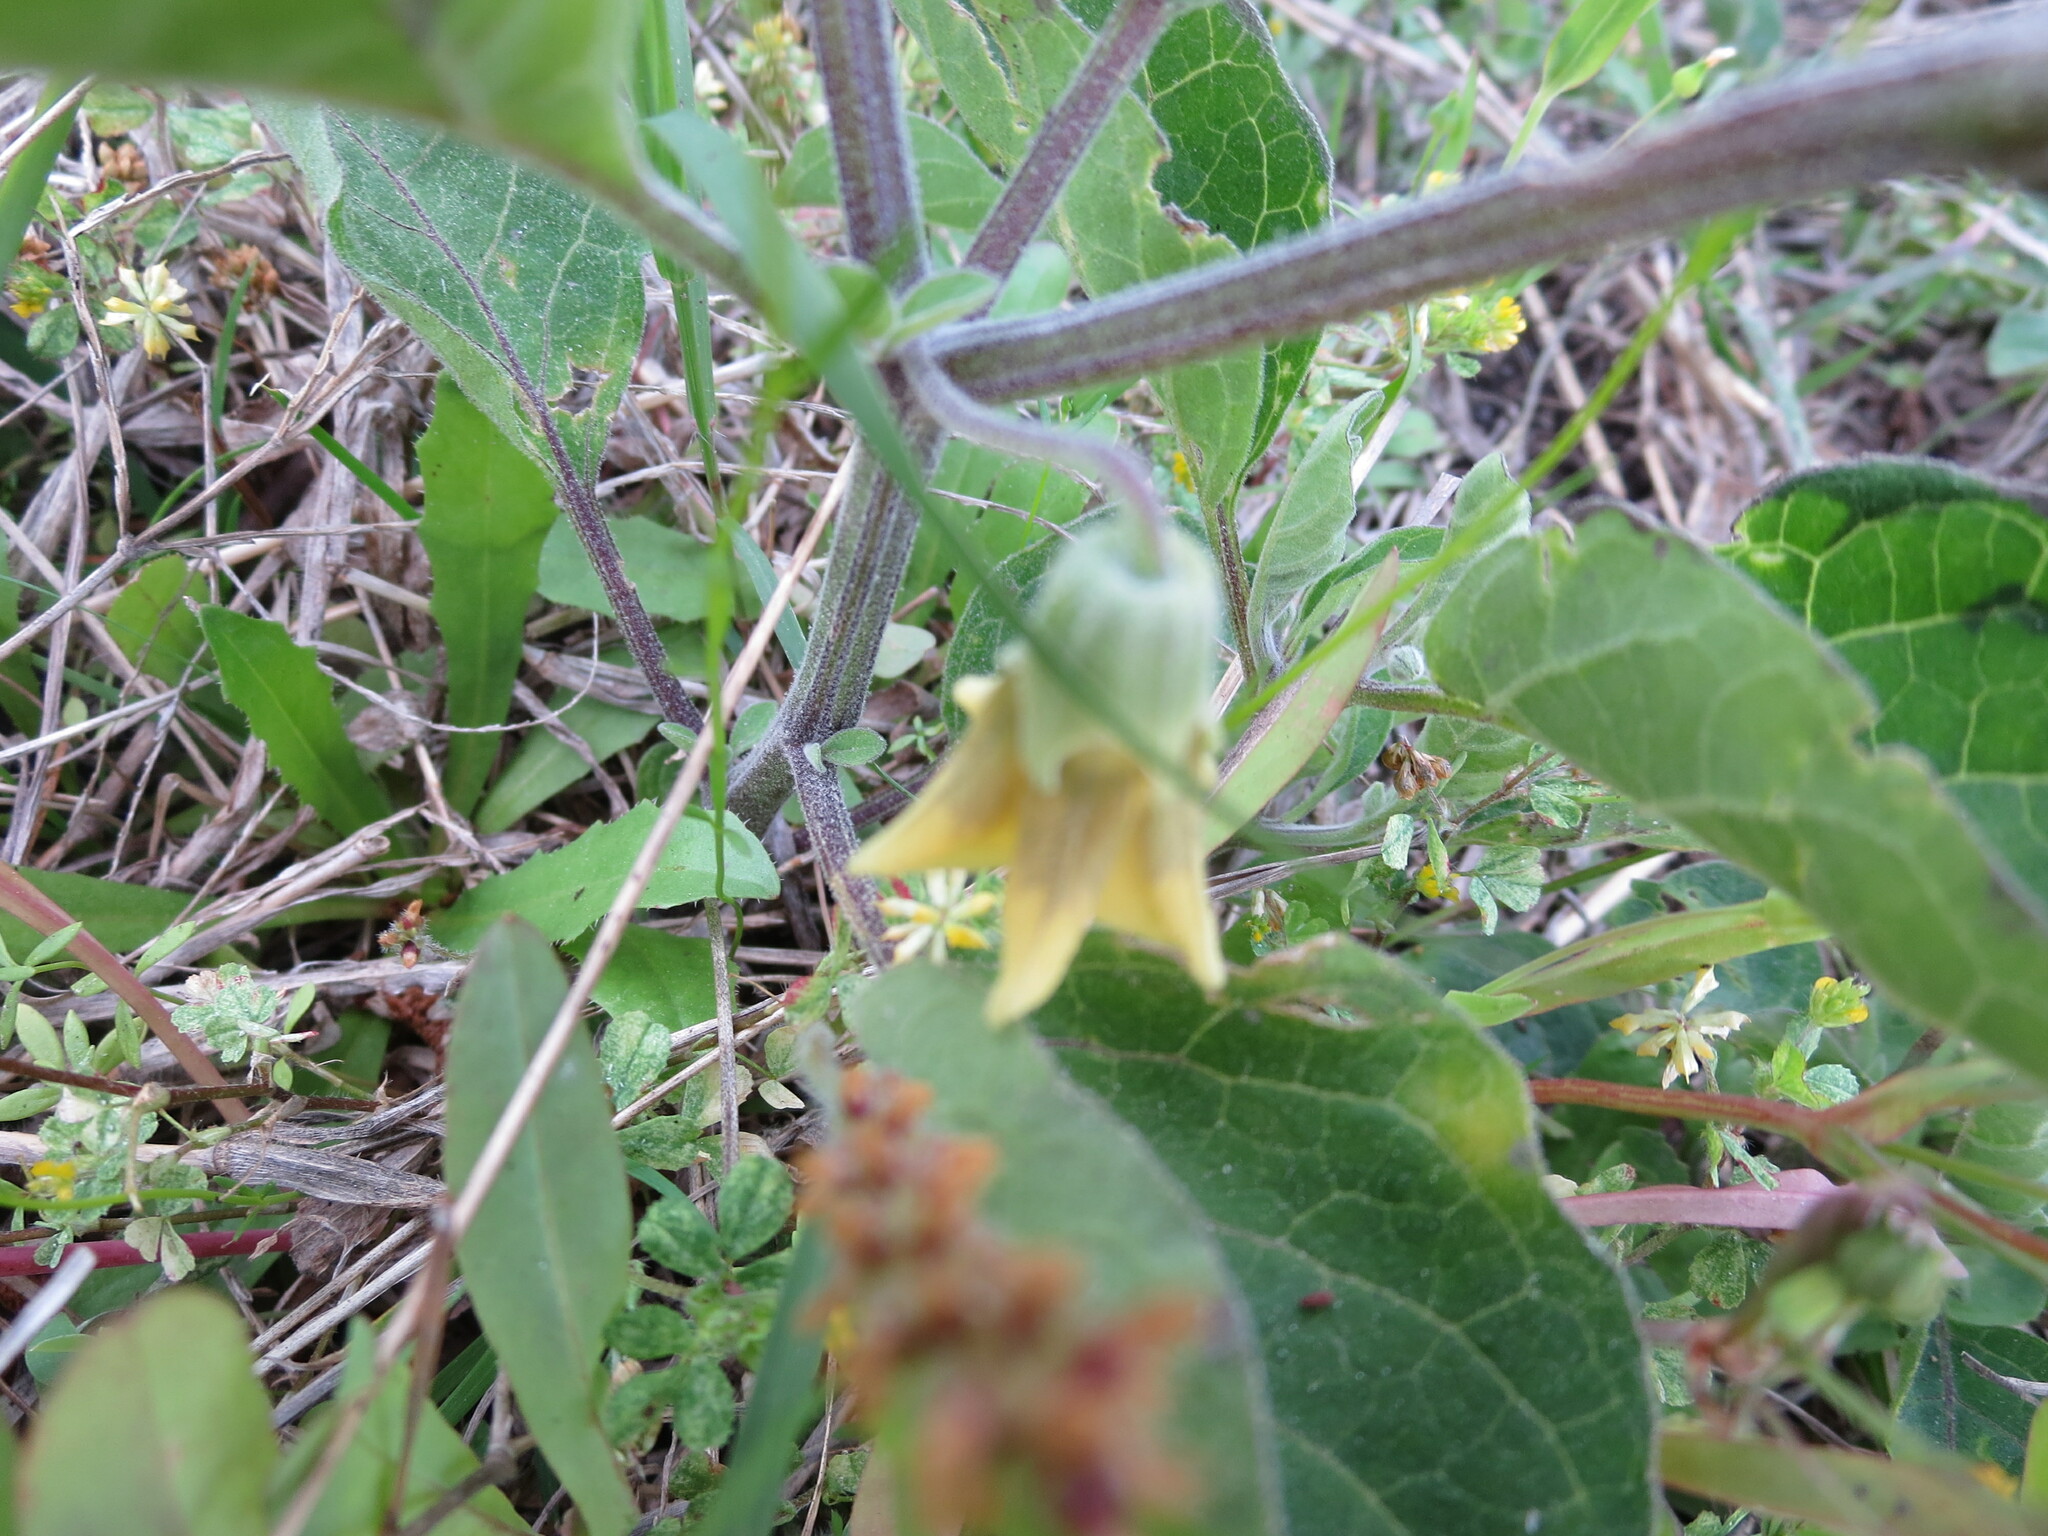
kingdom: Plantae
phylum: Tracheophyta
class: Magnoliopsida
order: Solanales
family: Solanaceae
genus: Physalis
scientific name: Physalis walteri
